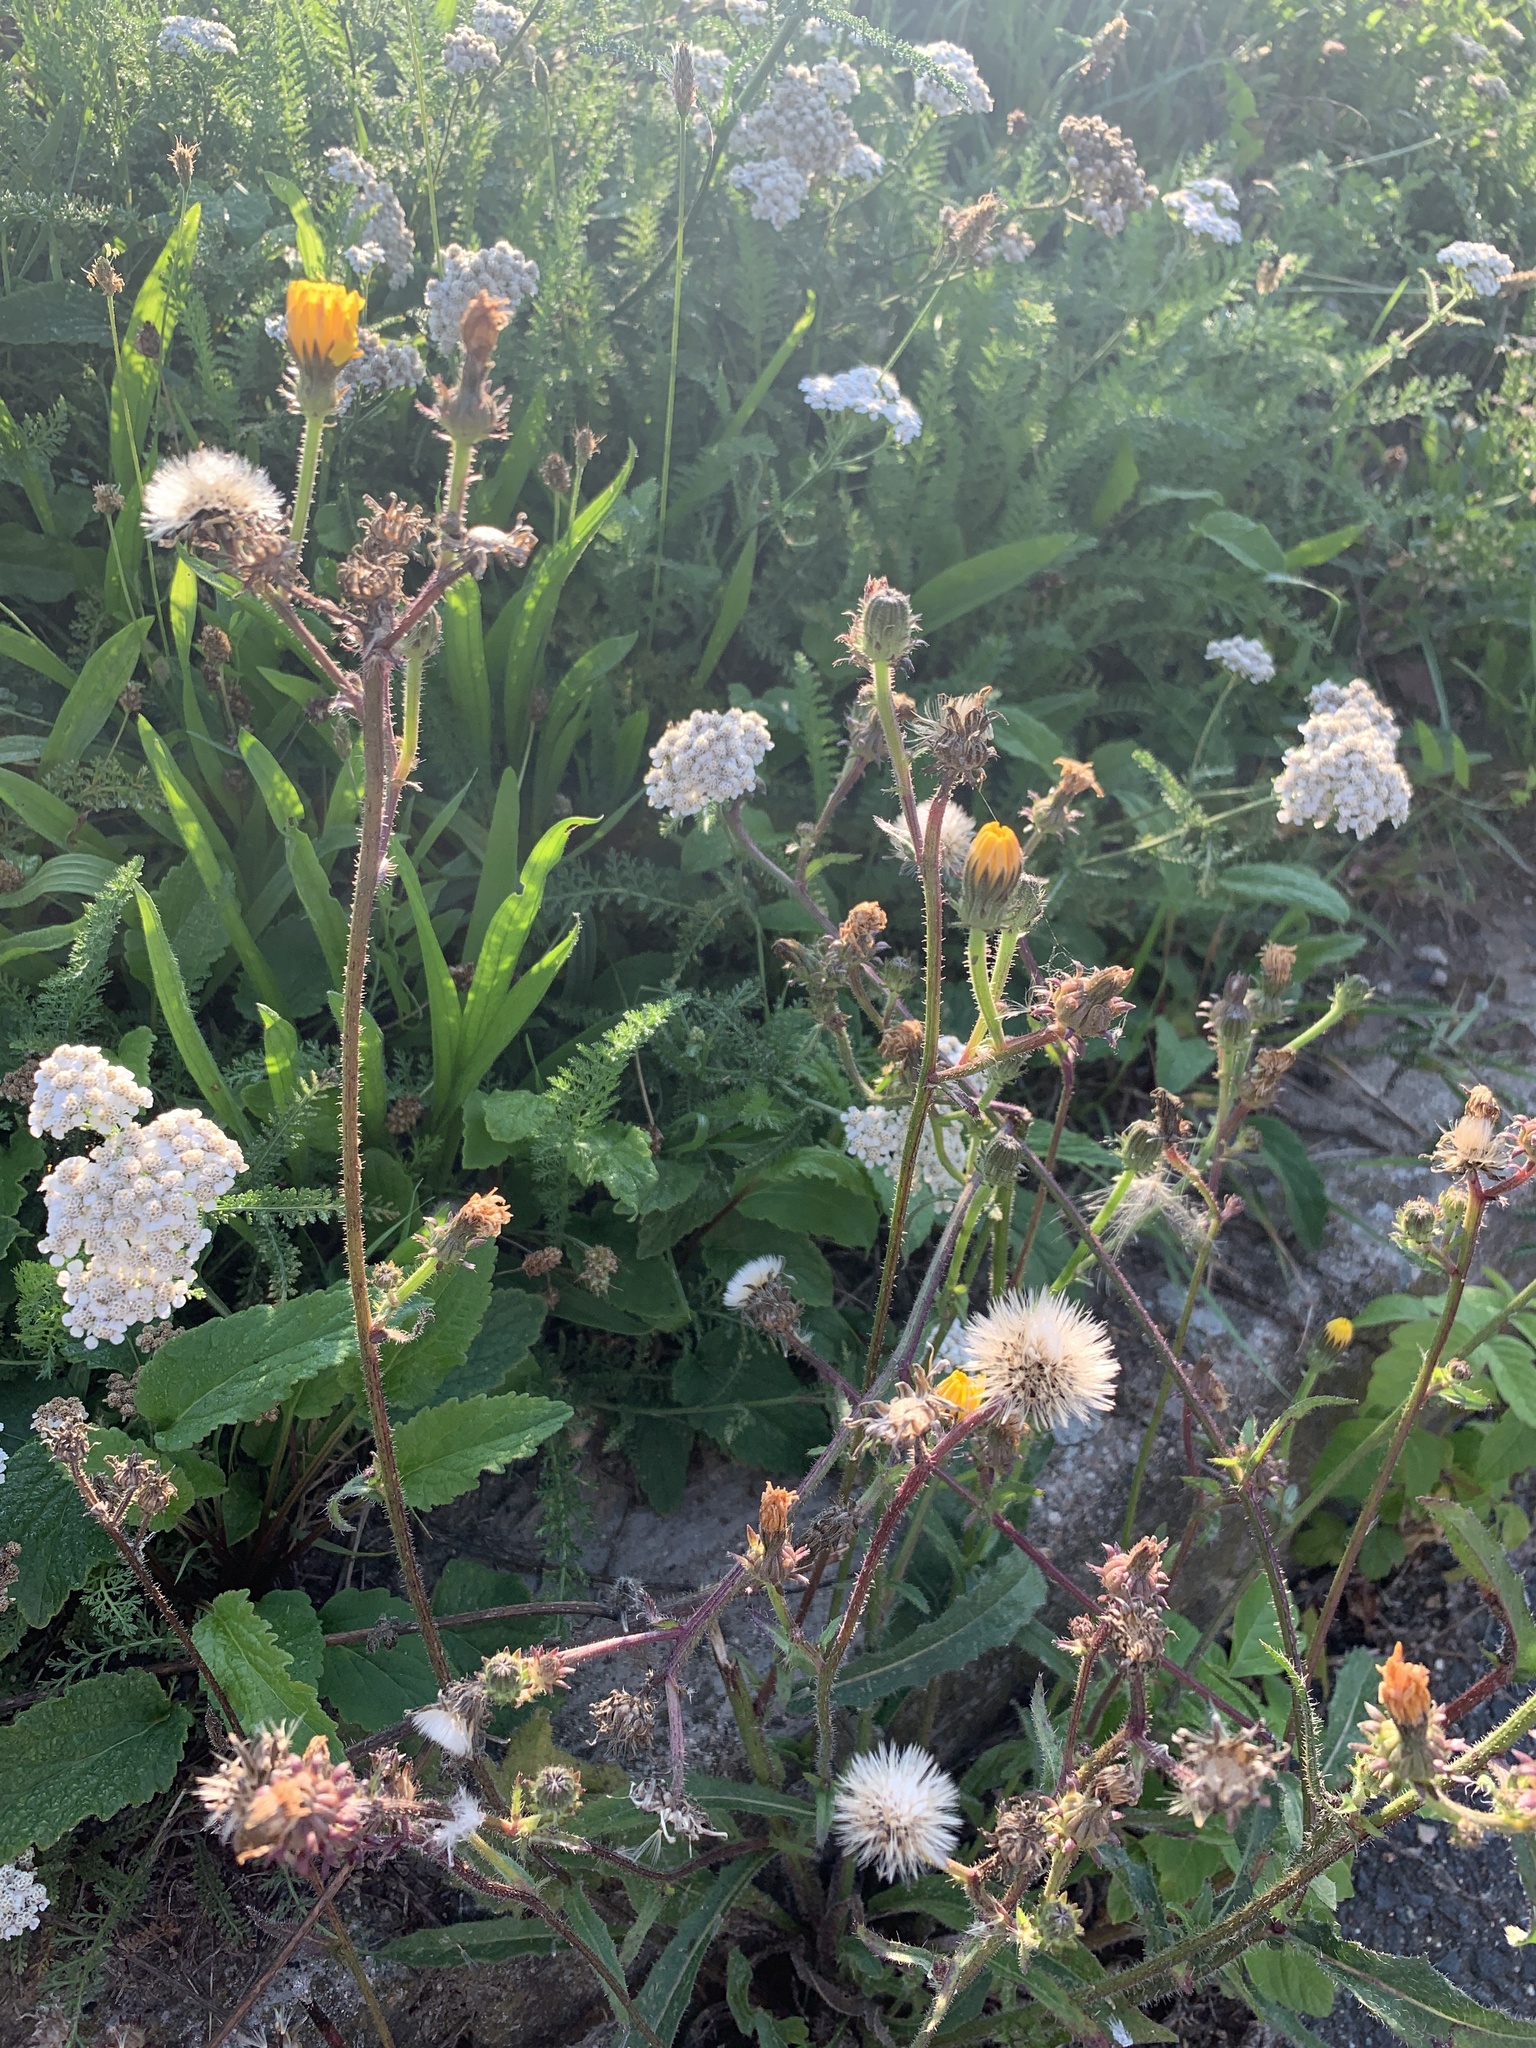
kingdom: Plantae
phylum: Tracheophyta
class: Magnoliopsida
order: Asterales
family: Asteraceae
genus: Picris
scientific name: Picris hieracioides
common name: Hawkweed oxtongue
